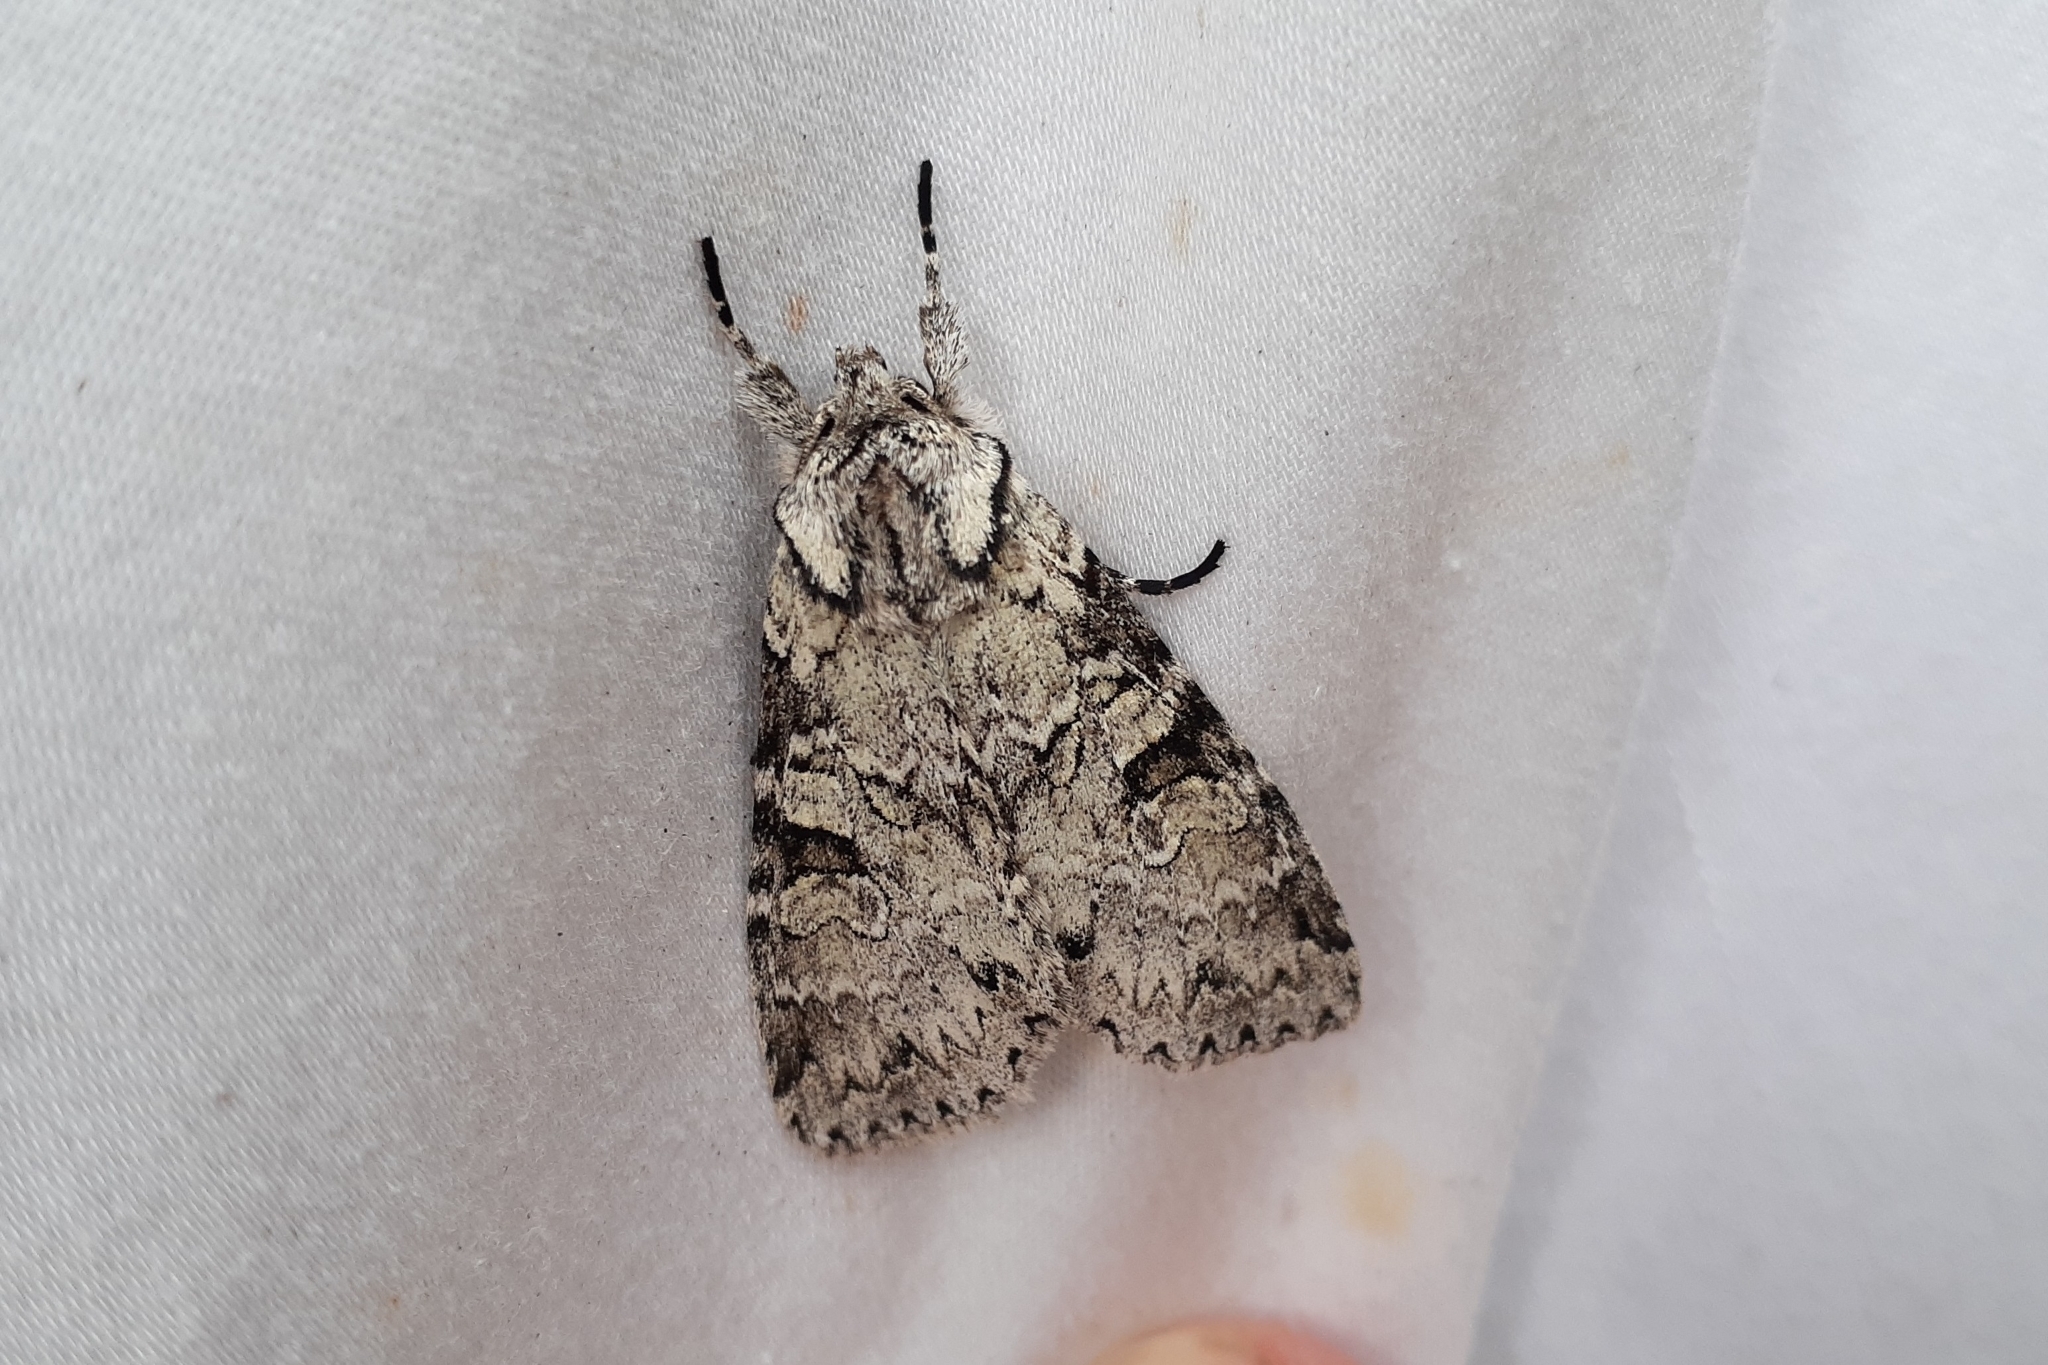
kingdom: Animalia
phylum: Arthropoda
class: Insecta
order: Lepidoptera
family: Noctuidae
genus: Polia
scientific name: Polia nimbosa
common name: Stormy arches
